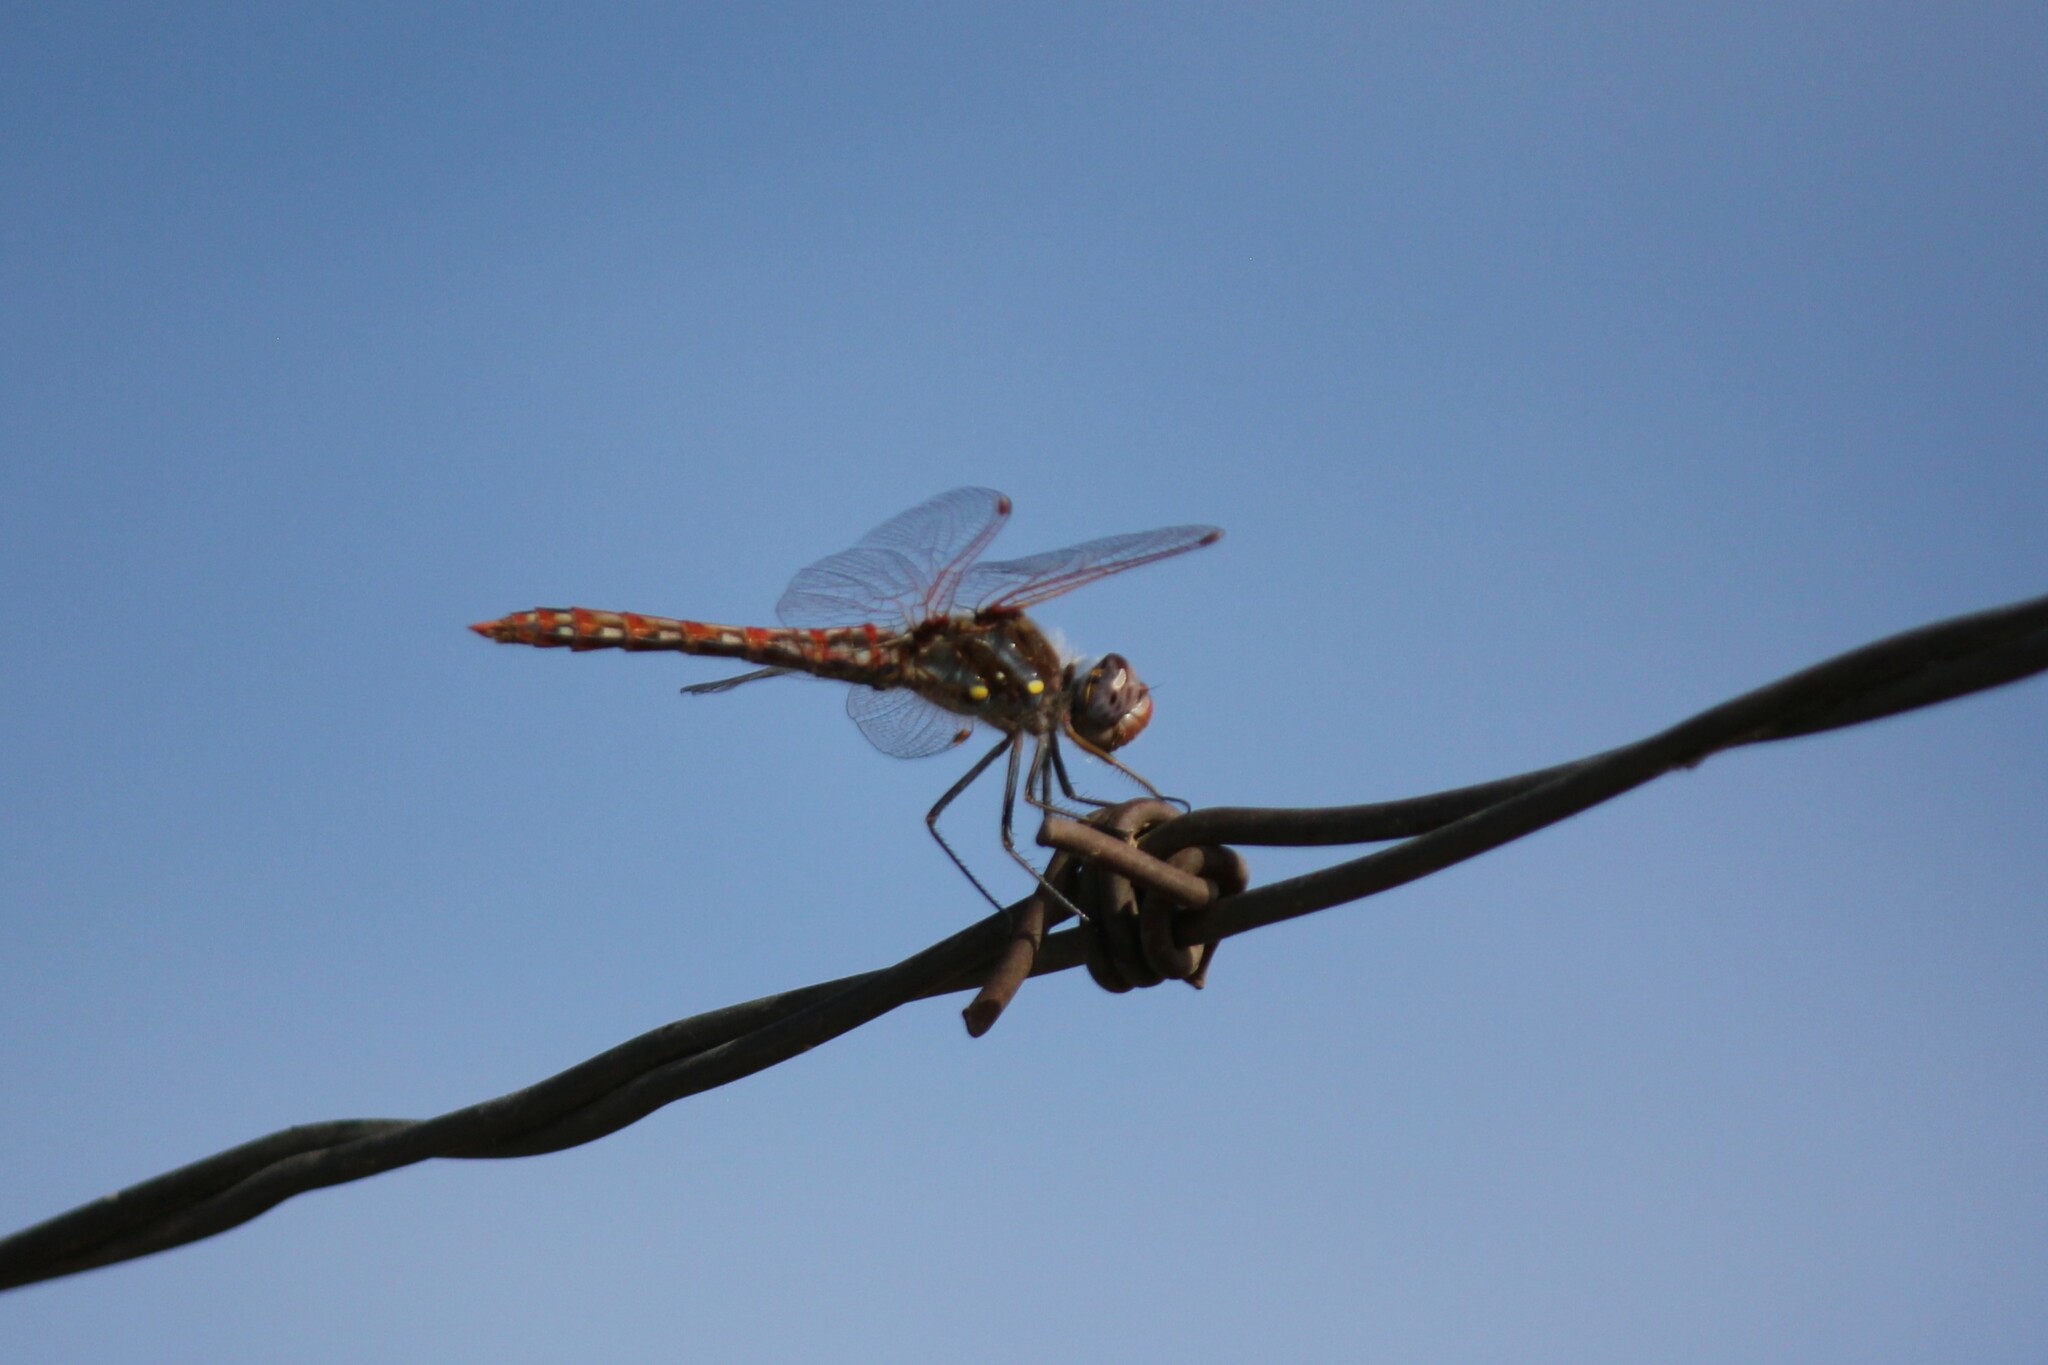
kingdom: Animalia
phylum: Arthropoda
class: Insecta
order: Odonata
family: Libellulidae
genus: Sympetrum
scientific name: Sympetrum corruptum
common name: Variegated meadowhawk
